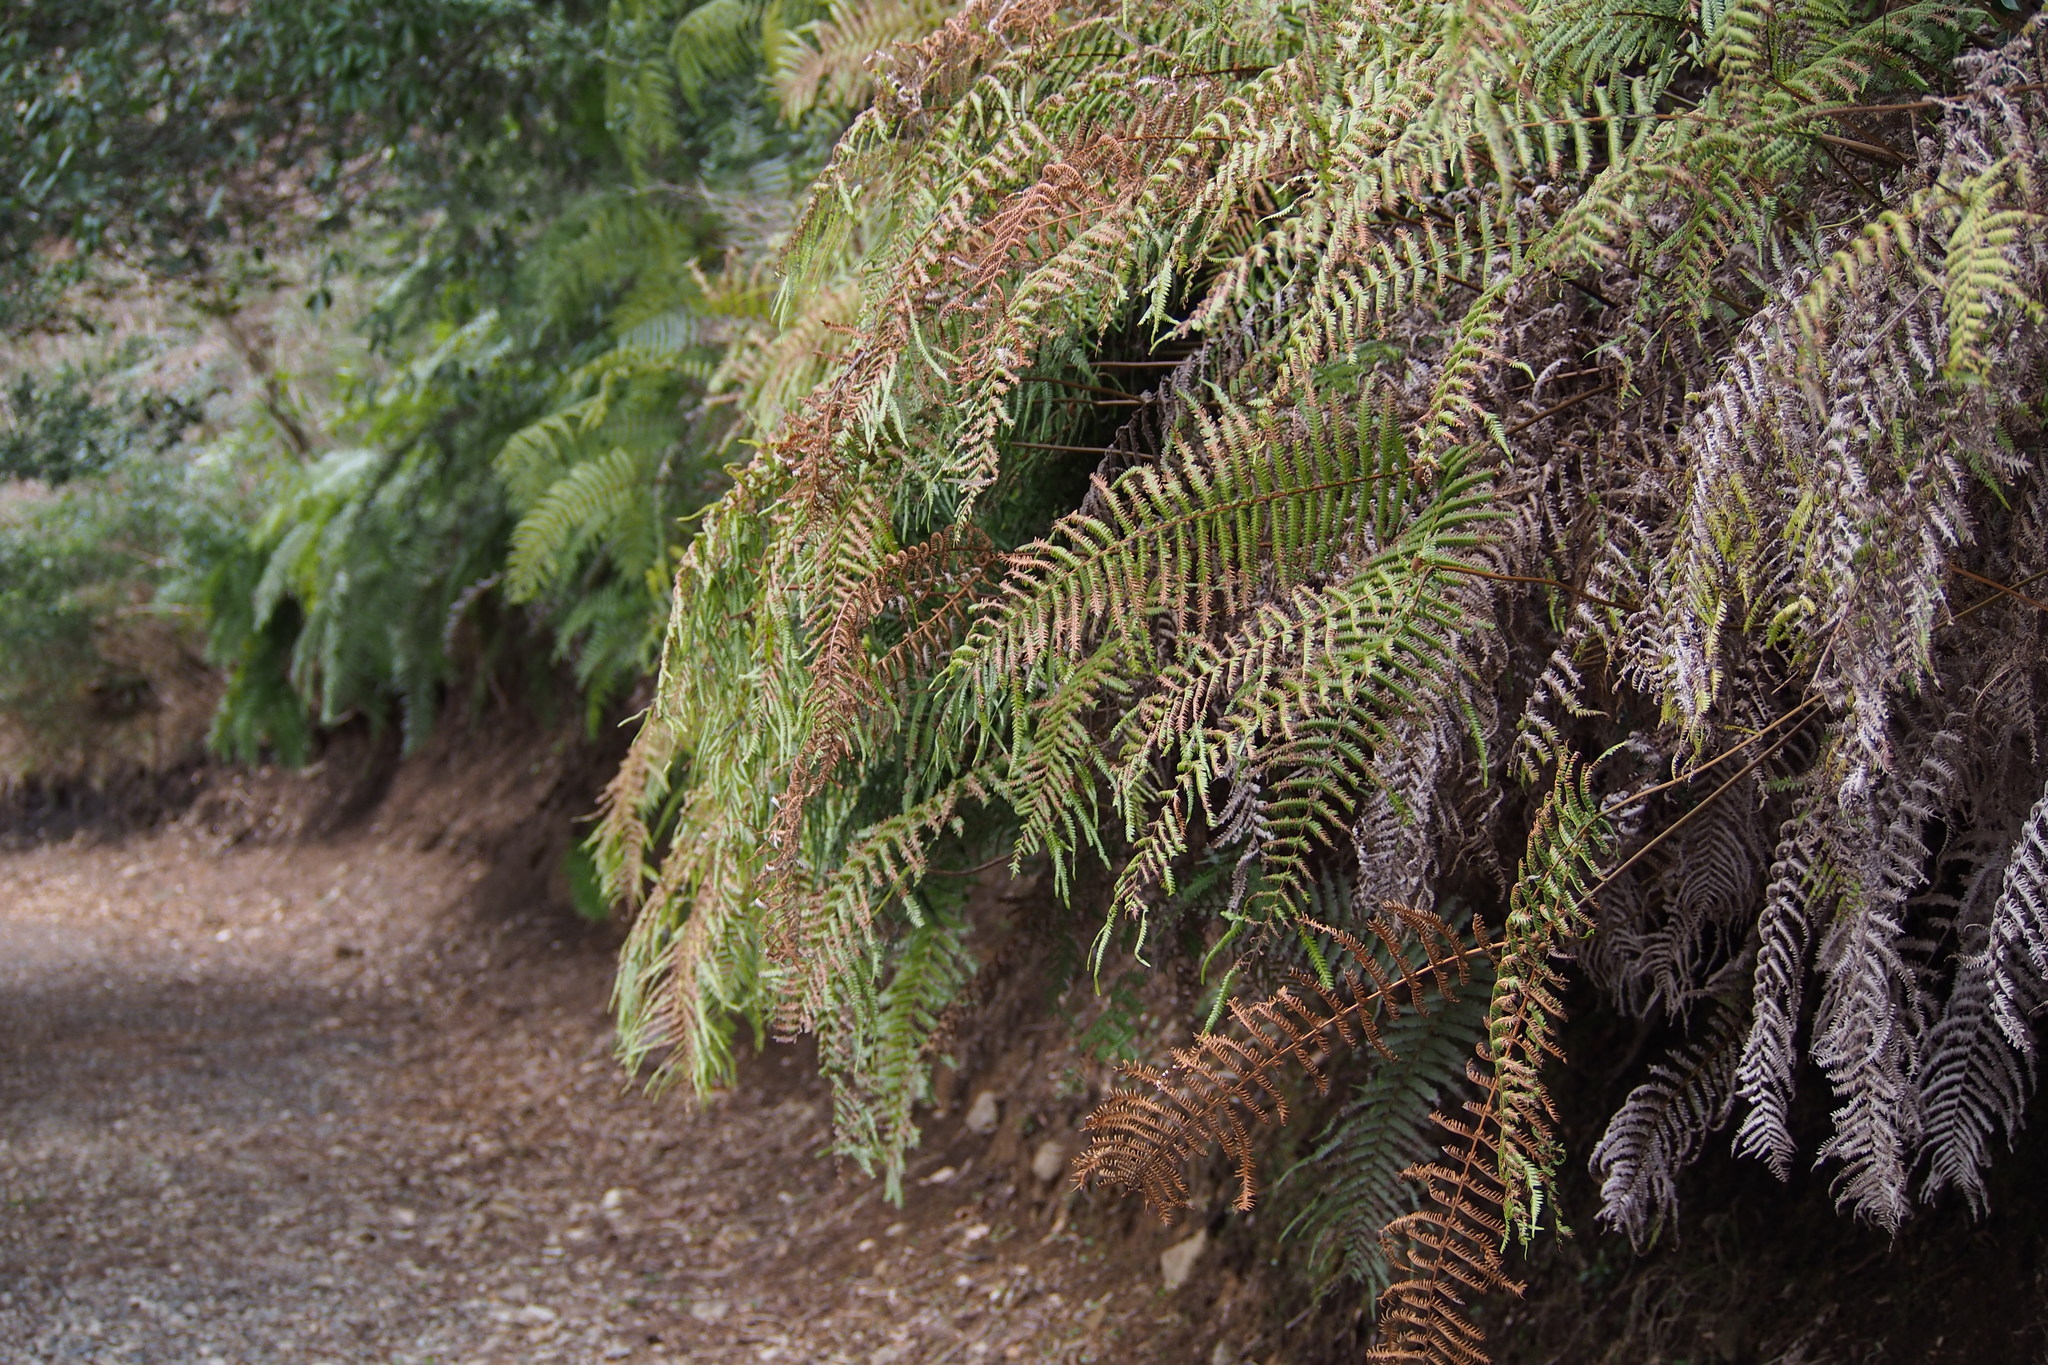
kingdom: Plantae
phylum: Tracheophyta
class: Polypodiopsida
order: Gleicheniales
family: Gleicheniaceae
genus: Diplopterygium
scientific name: Diplopterygium glaucum
